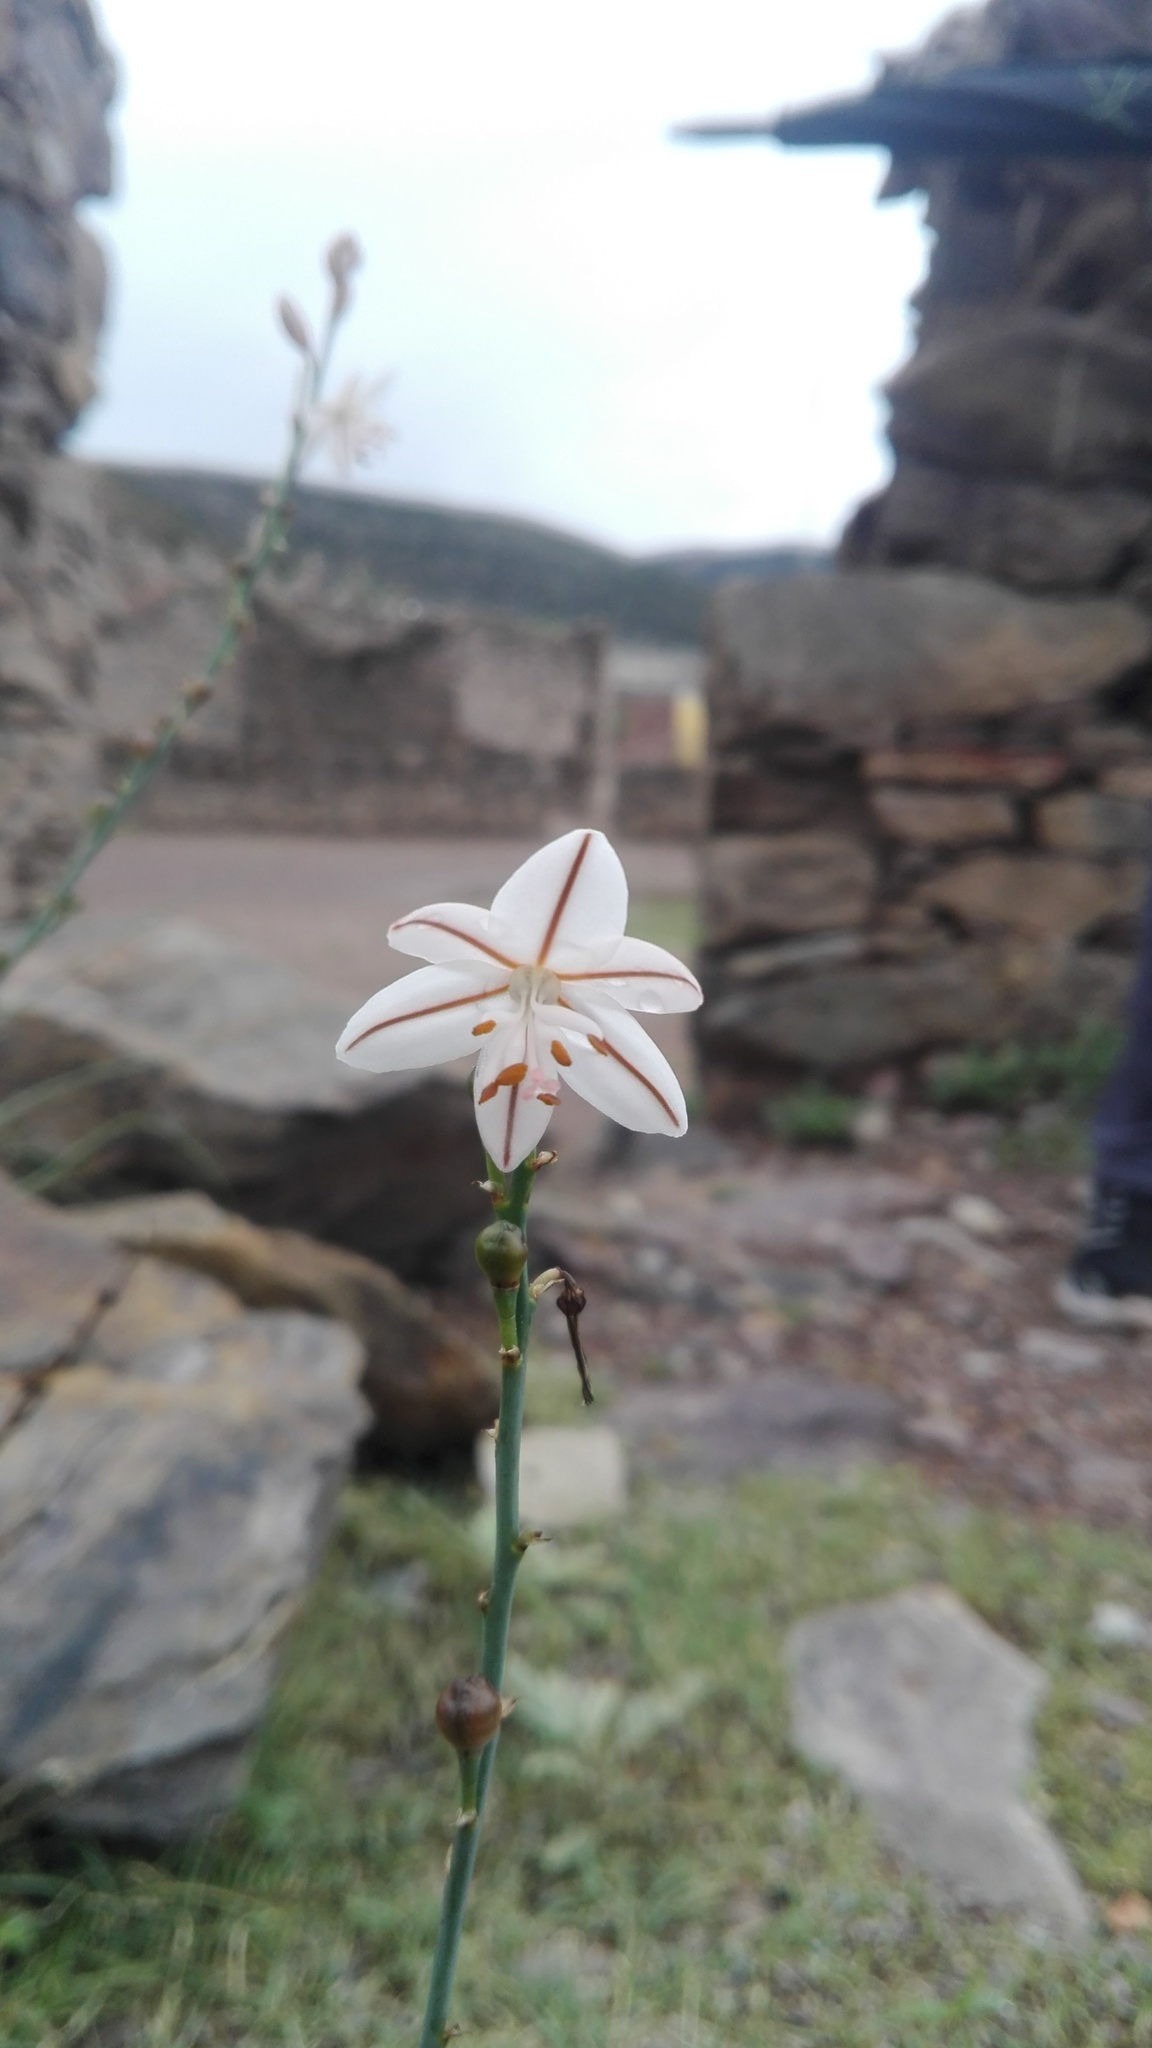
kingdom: Plantae
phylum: Tracheophyta
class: Liliopsida
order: Asparagales
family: Asphodelaceae
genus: Asphodelus
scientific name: Asphodelus fistulosus
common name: Onionweed
